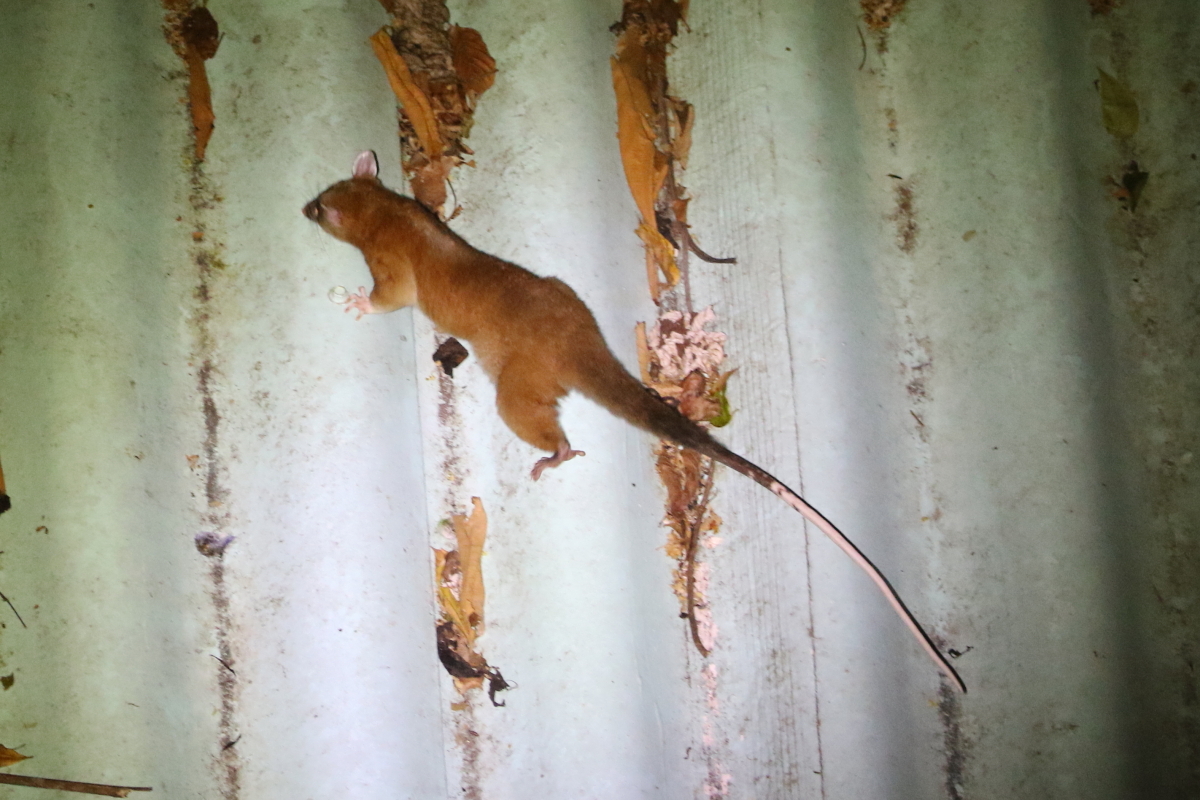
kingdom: Animalia
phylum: Chordata
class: Mammalia
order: Didelphimorphia
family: Didelphidae
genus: Caluromys
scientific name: Caluromys derbianus
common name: Derby's woolly opossum
